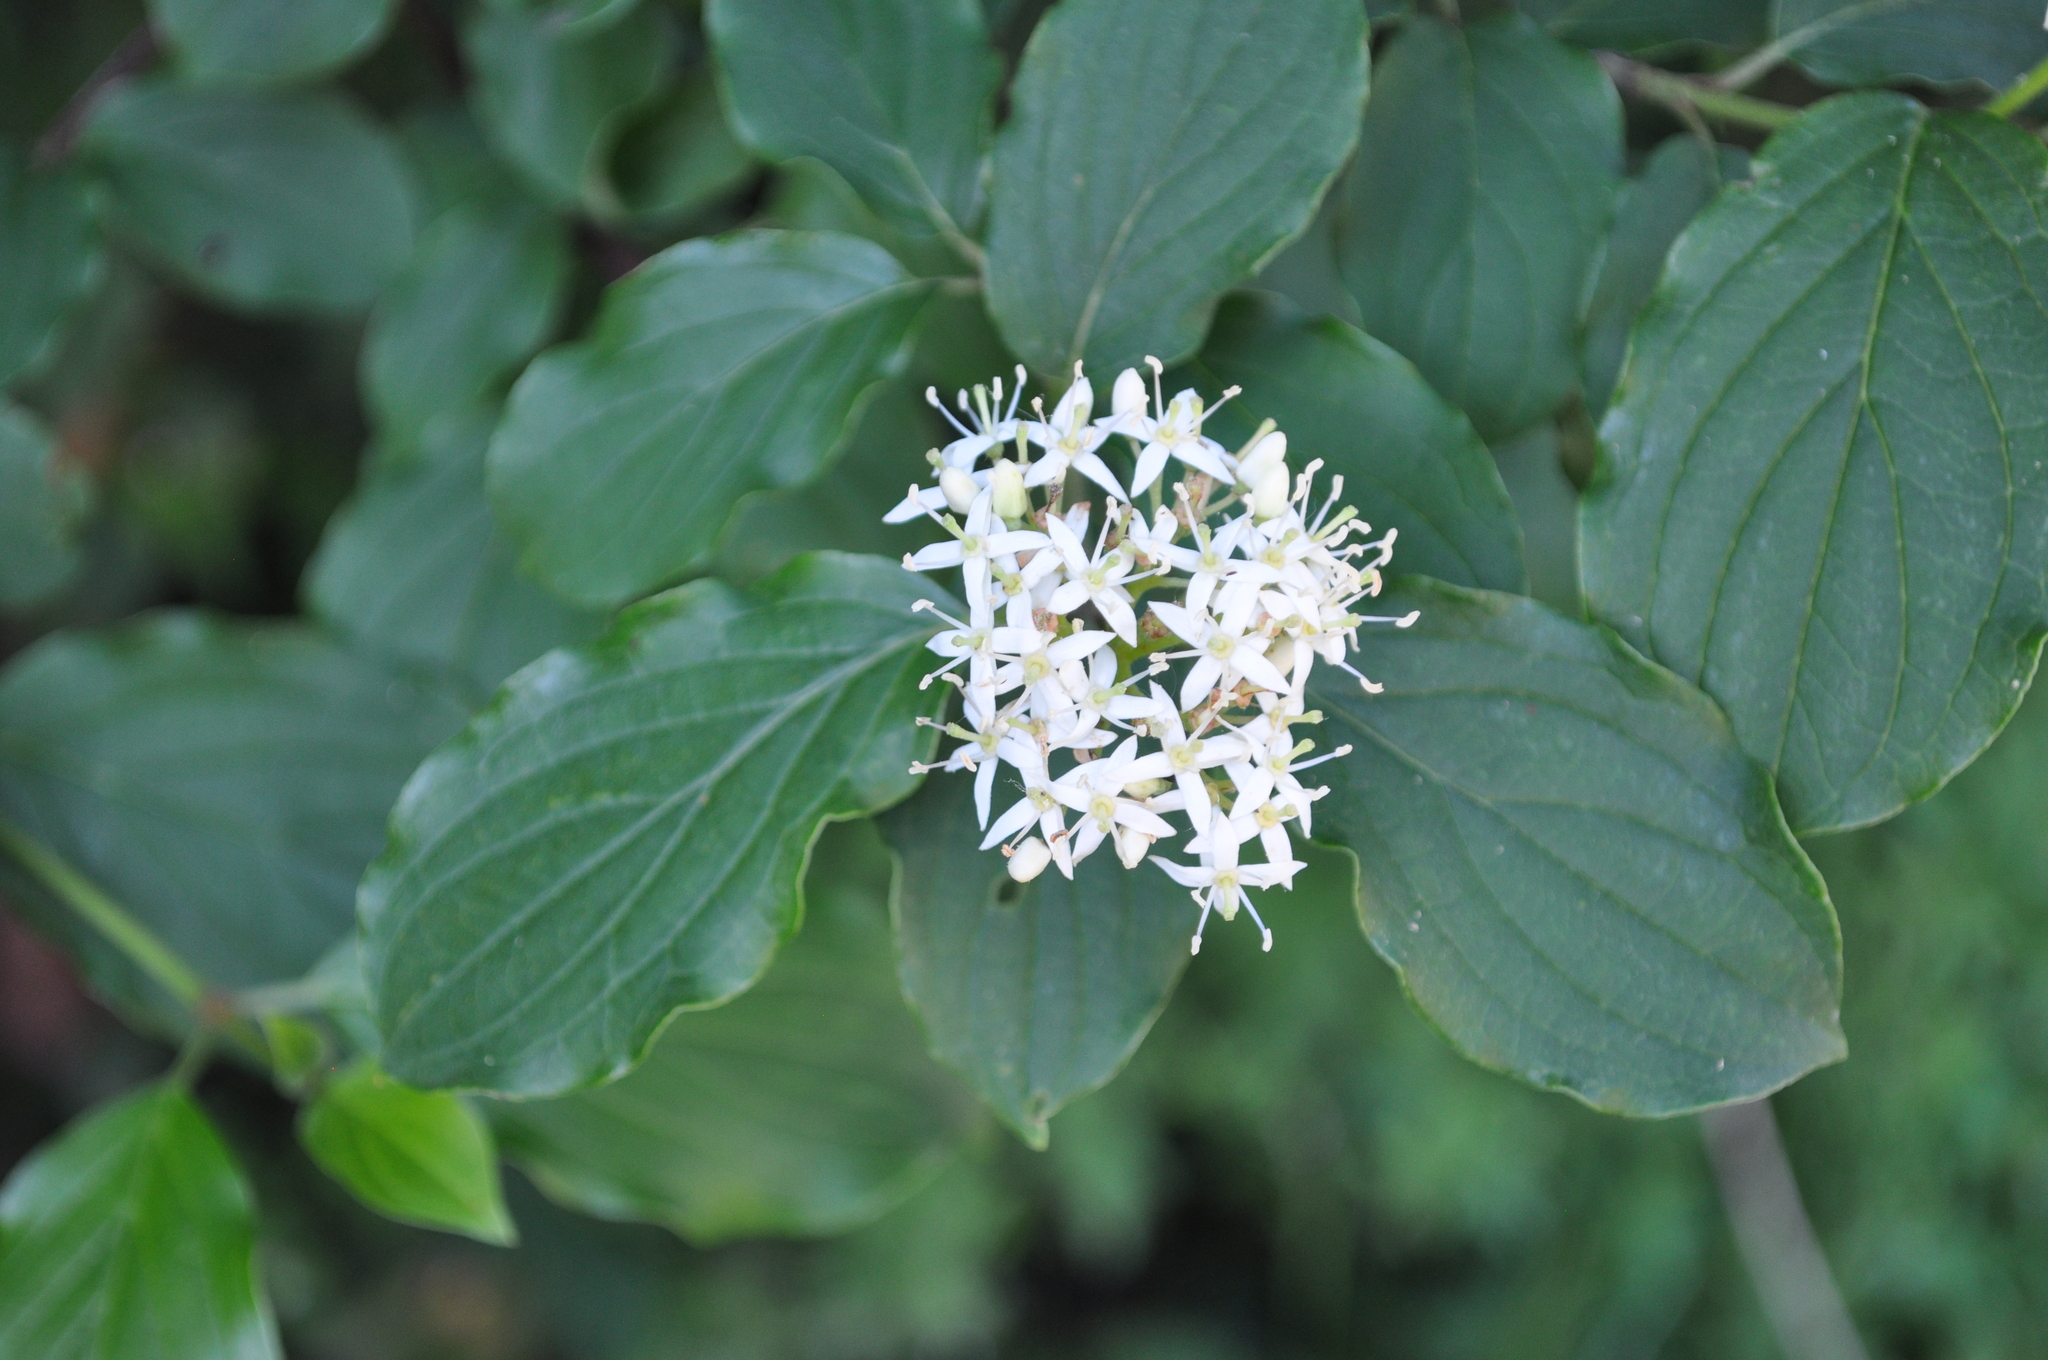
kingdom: Plantae
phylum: Tracheophyta
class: Magnoliopsida
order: Cornales
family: Cornaceae
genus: Cornus
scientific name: Cornus sanguinea
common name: Dogwood
